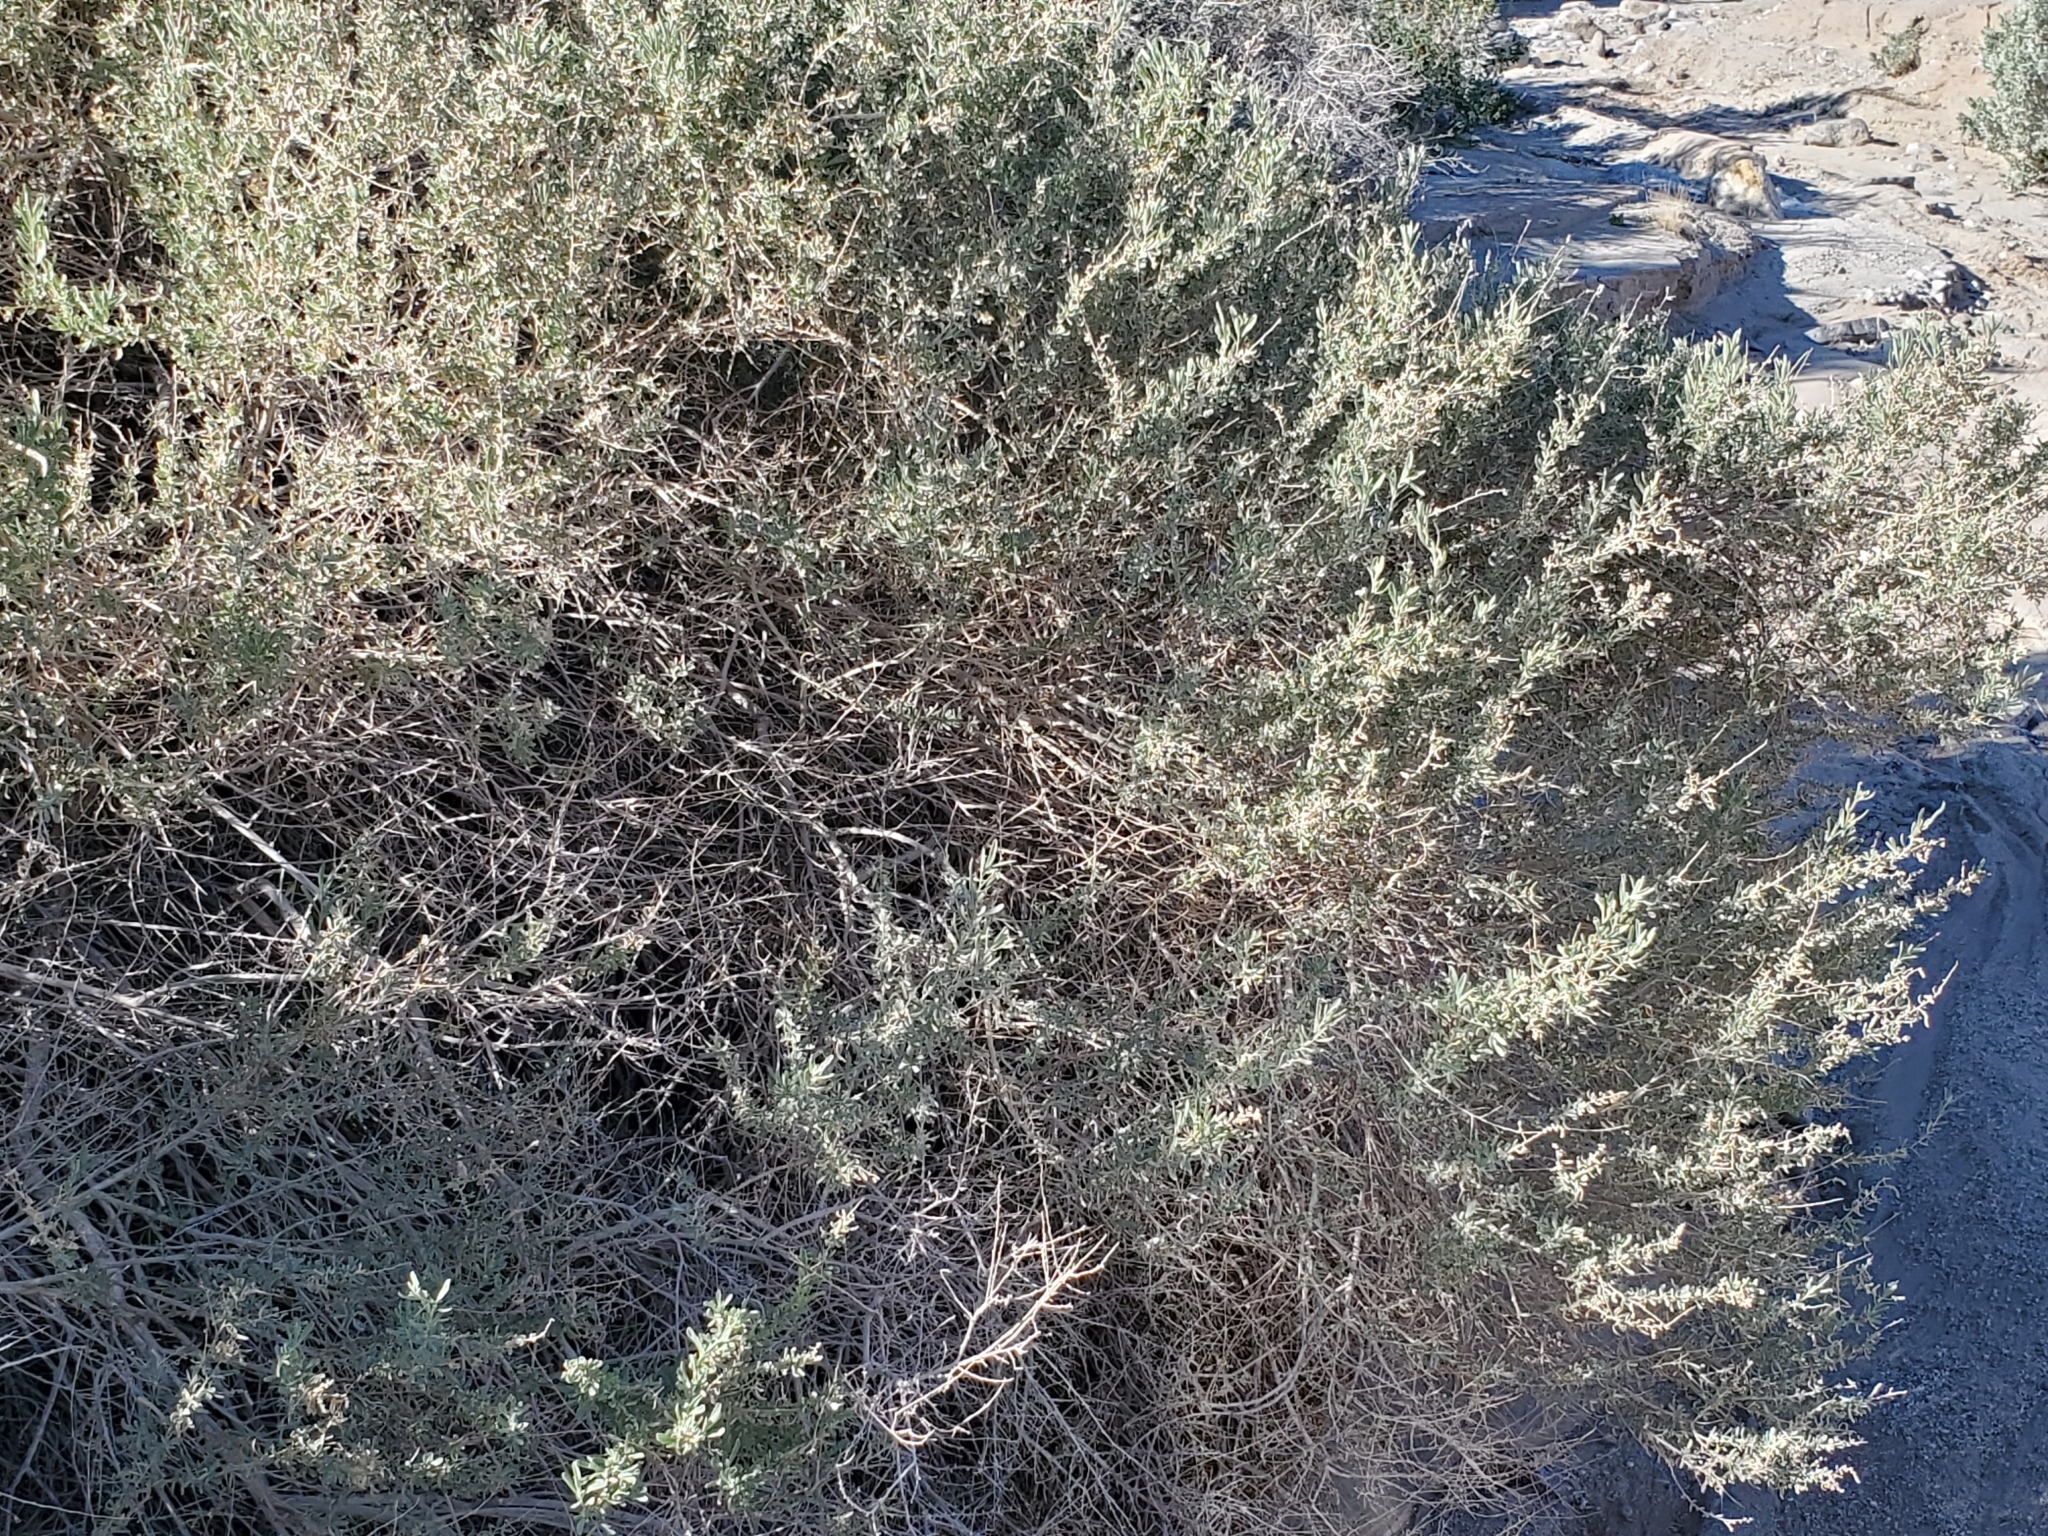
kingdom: Plantae
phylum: Tracheophyta
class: Magnoliopsida
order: Caryophyllales
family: Amaranthaceae
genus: Atriplex
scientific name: Atriplex canescens
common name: Four-wing saltbush
